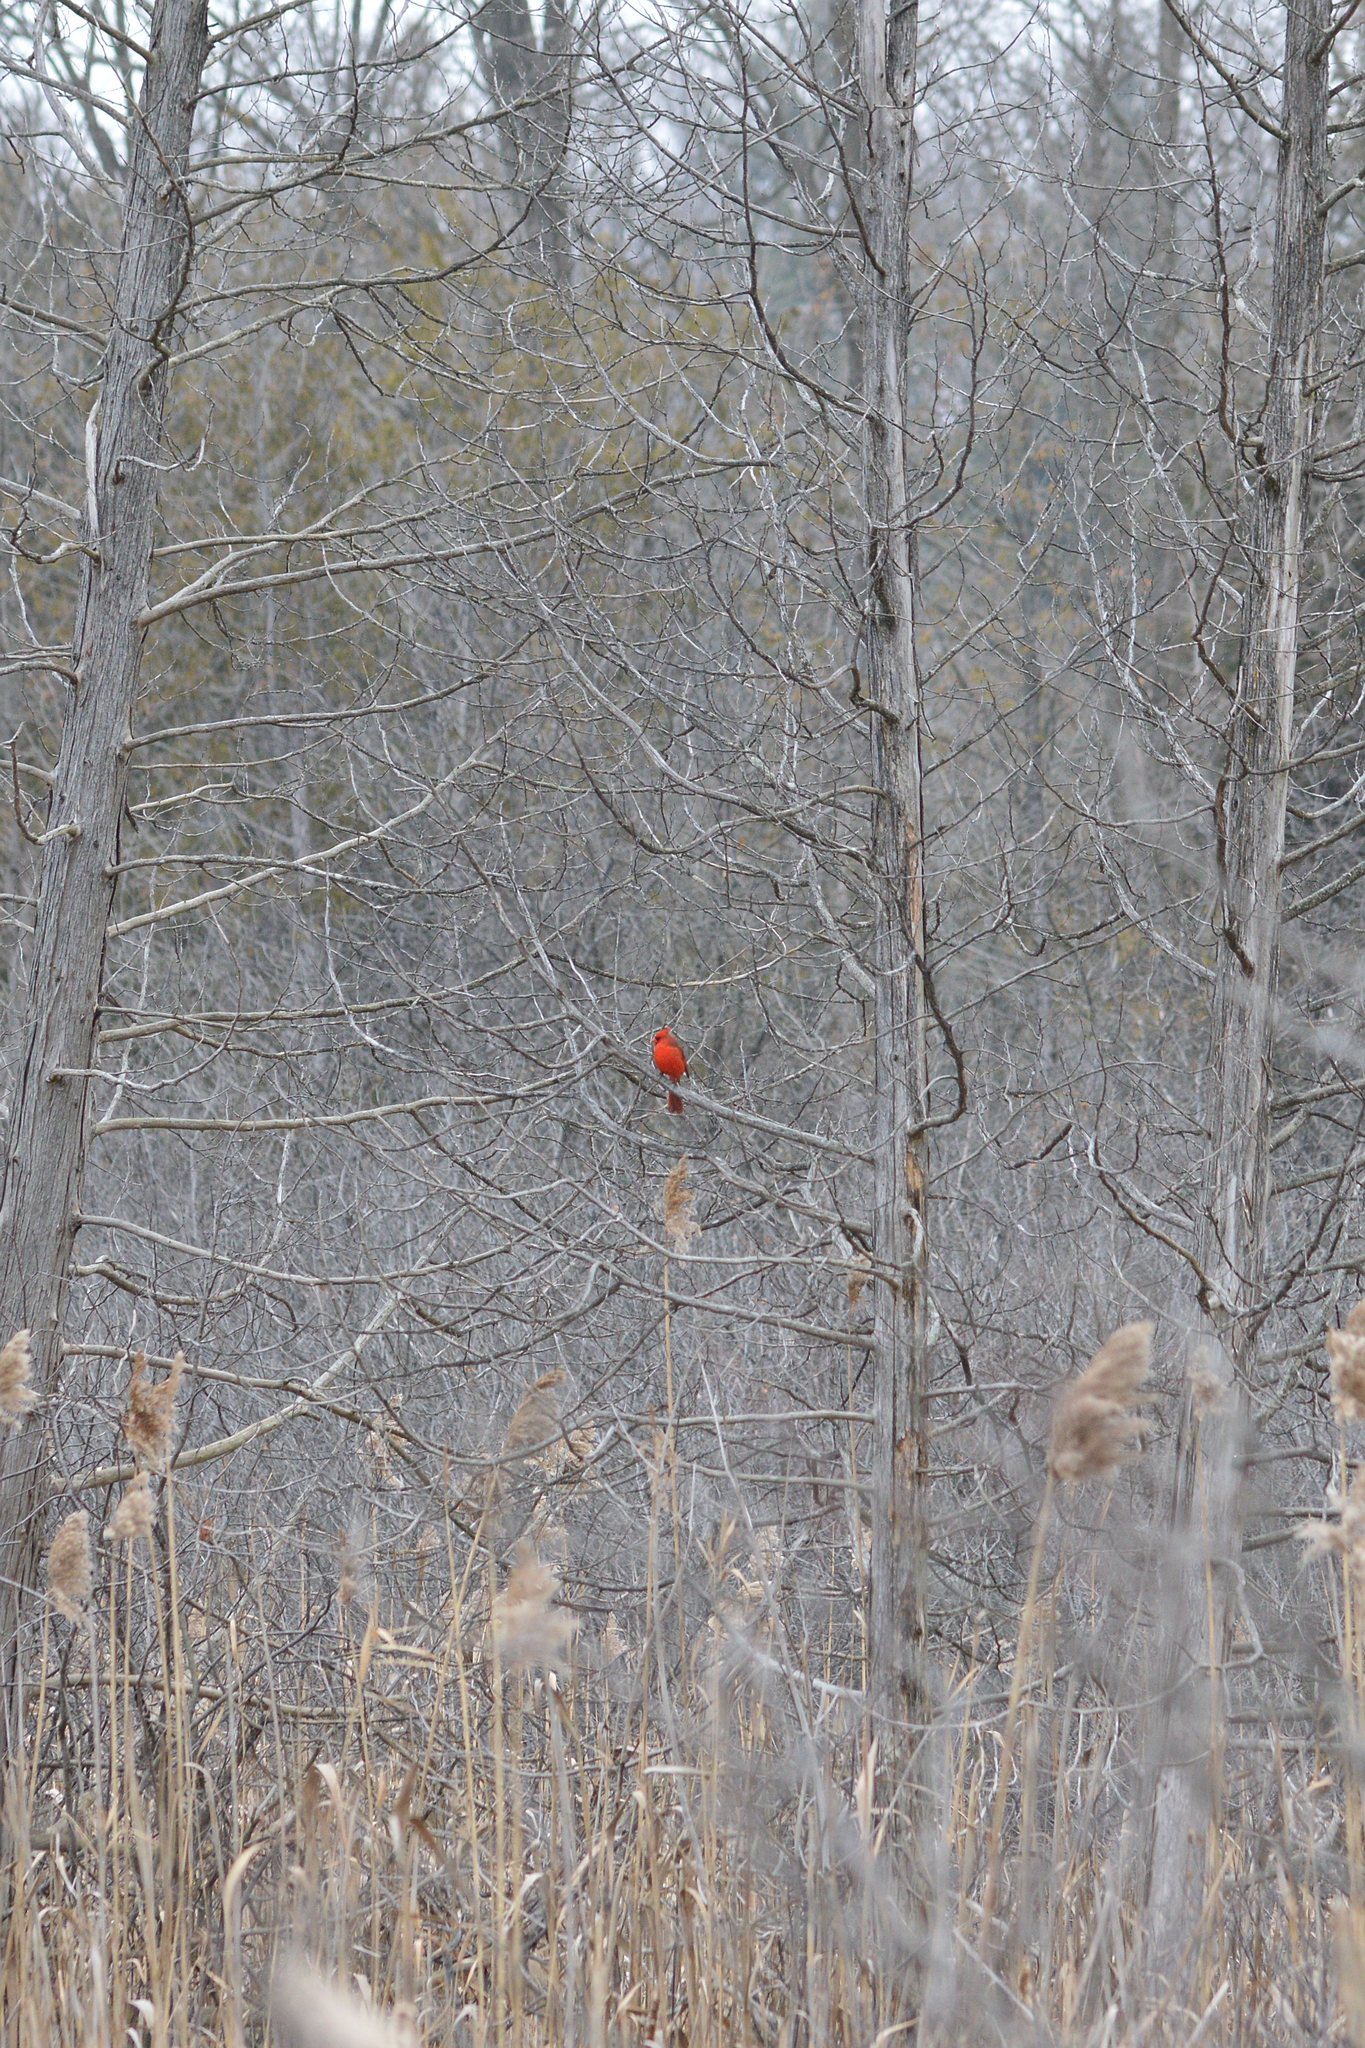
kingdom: Animalia
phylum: Chordata
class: Aves
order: Passeriformes
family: Cardinalidae
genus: Cardinalis
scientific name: Cardinalis cardinalis
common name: Northern cardinal
